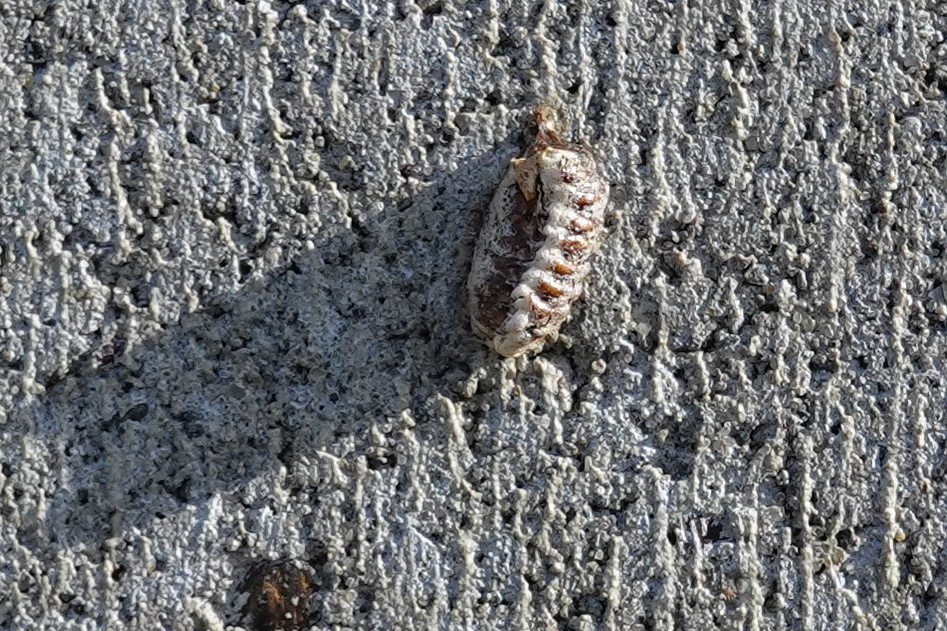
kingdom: Animalia
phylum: Arthropoda
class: Insecta
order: Mantodea
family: Mantidae
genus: Orthodera
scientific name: Orthodera novaezealandiae
